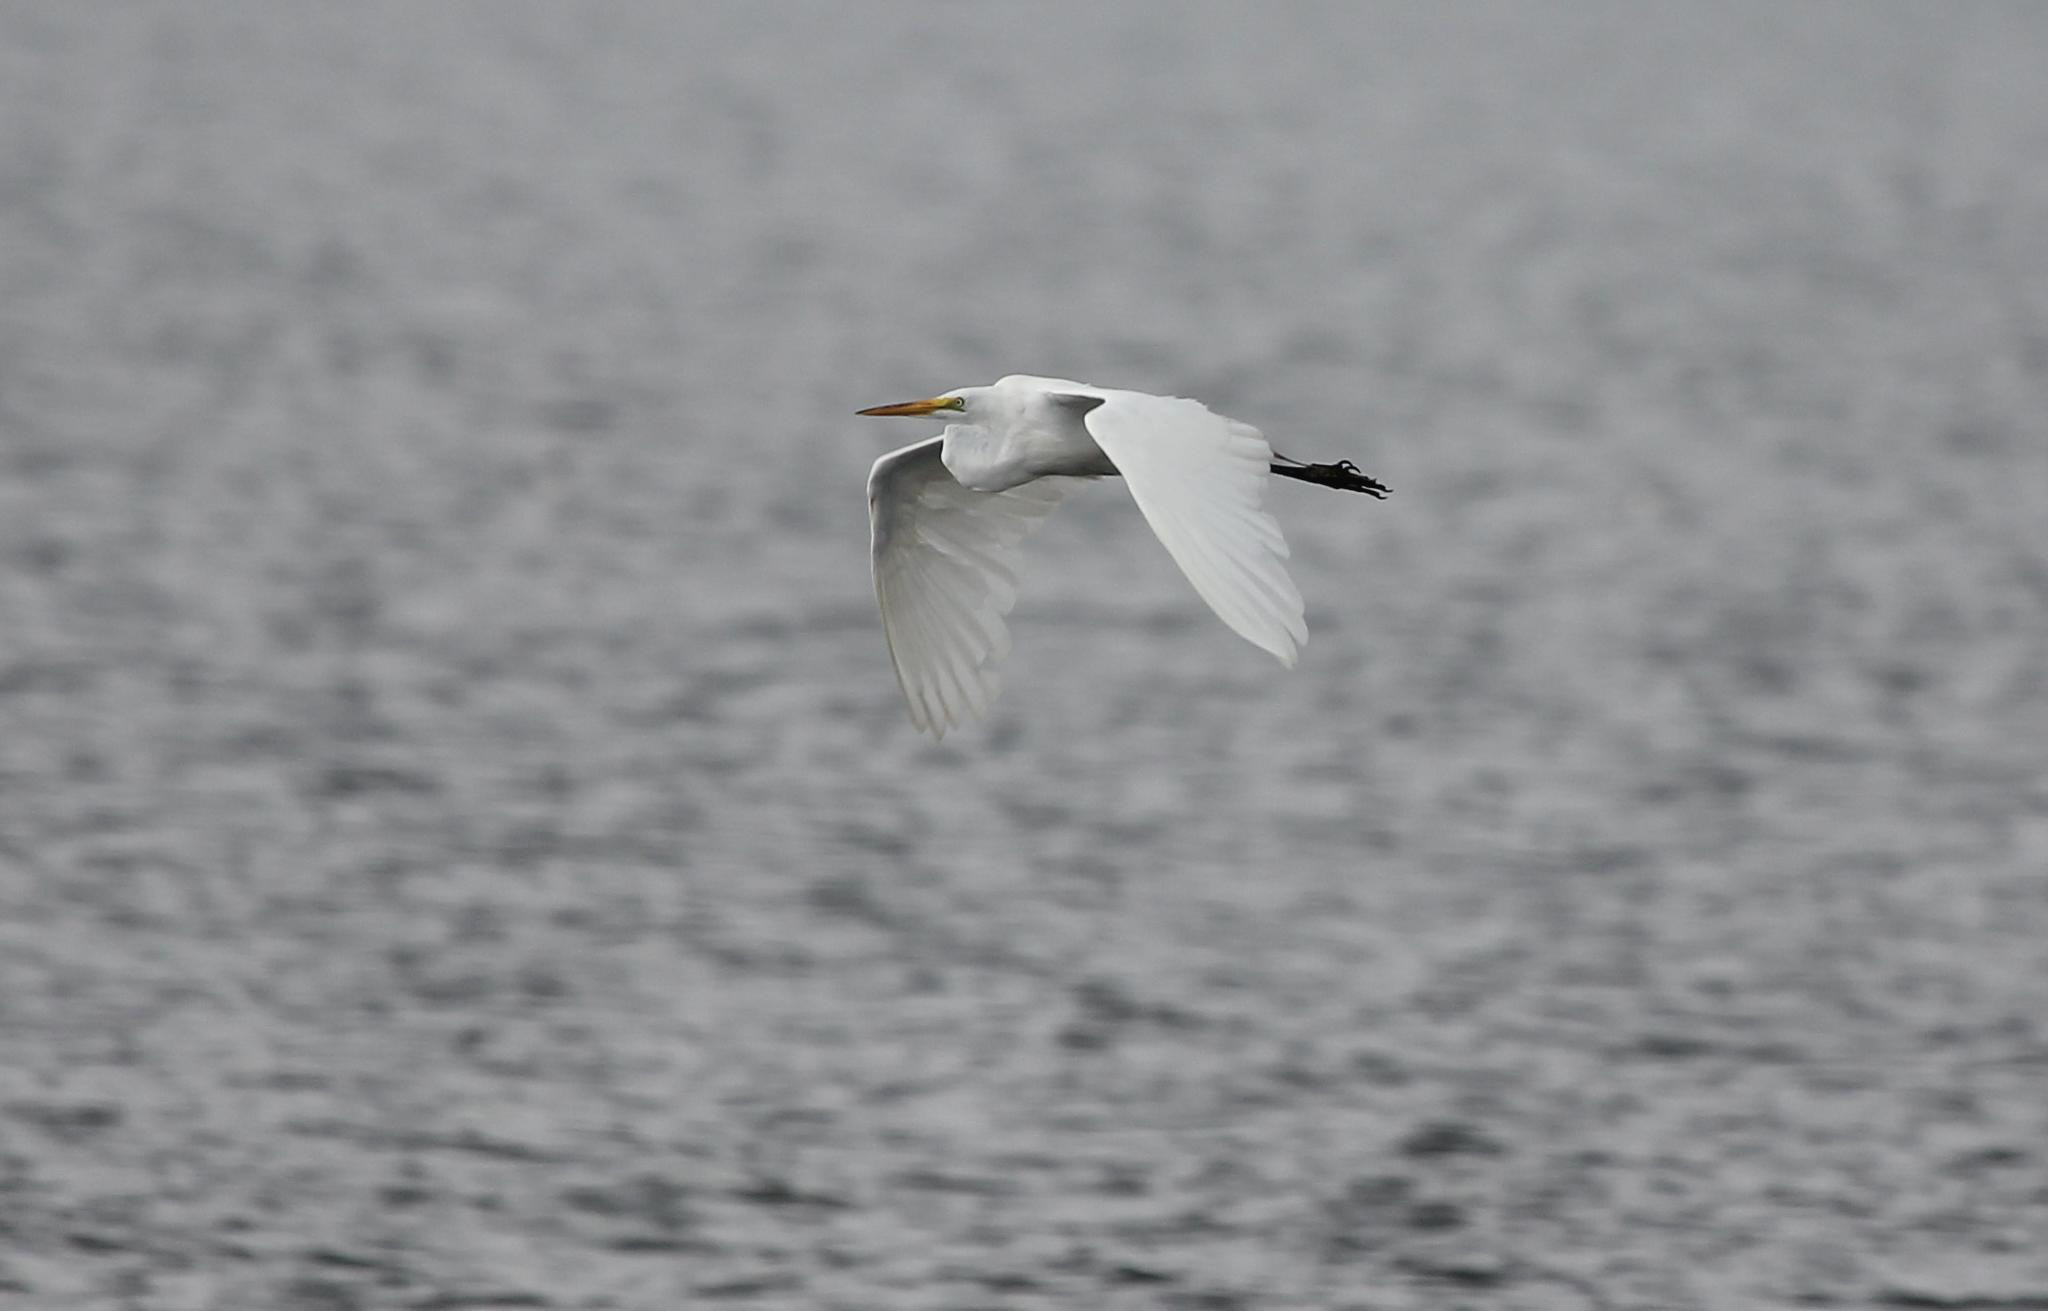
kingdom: Animalia
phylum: Chordata
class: Aves
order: Pelecaniformes
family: Ardeidae
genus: Ardea
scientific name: Ardea alba
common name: Great egret
